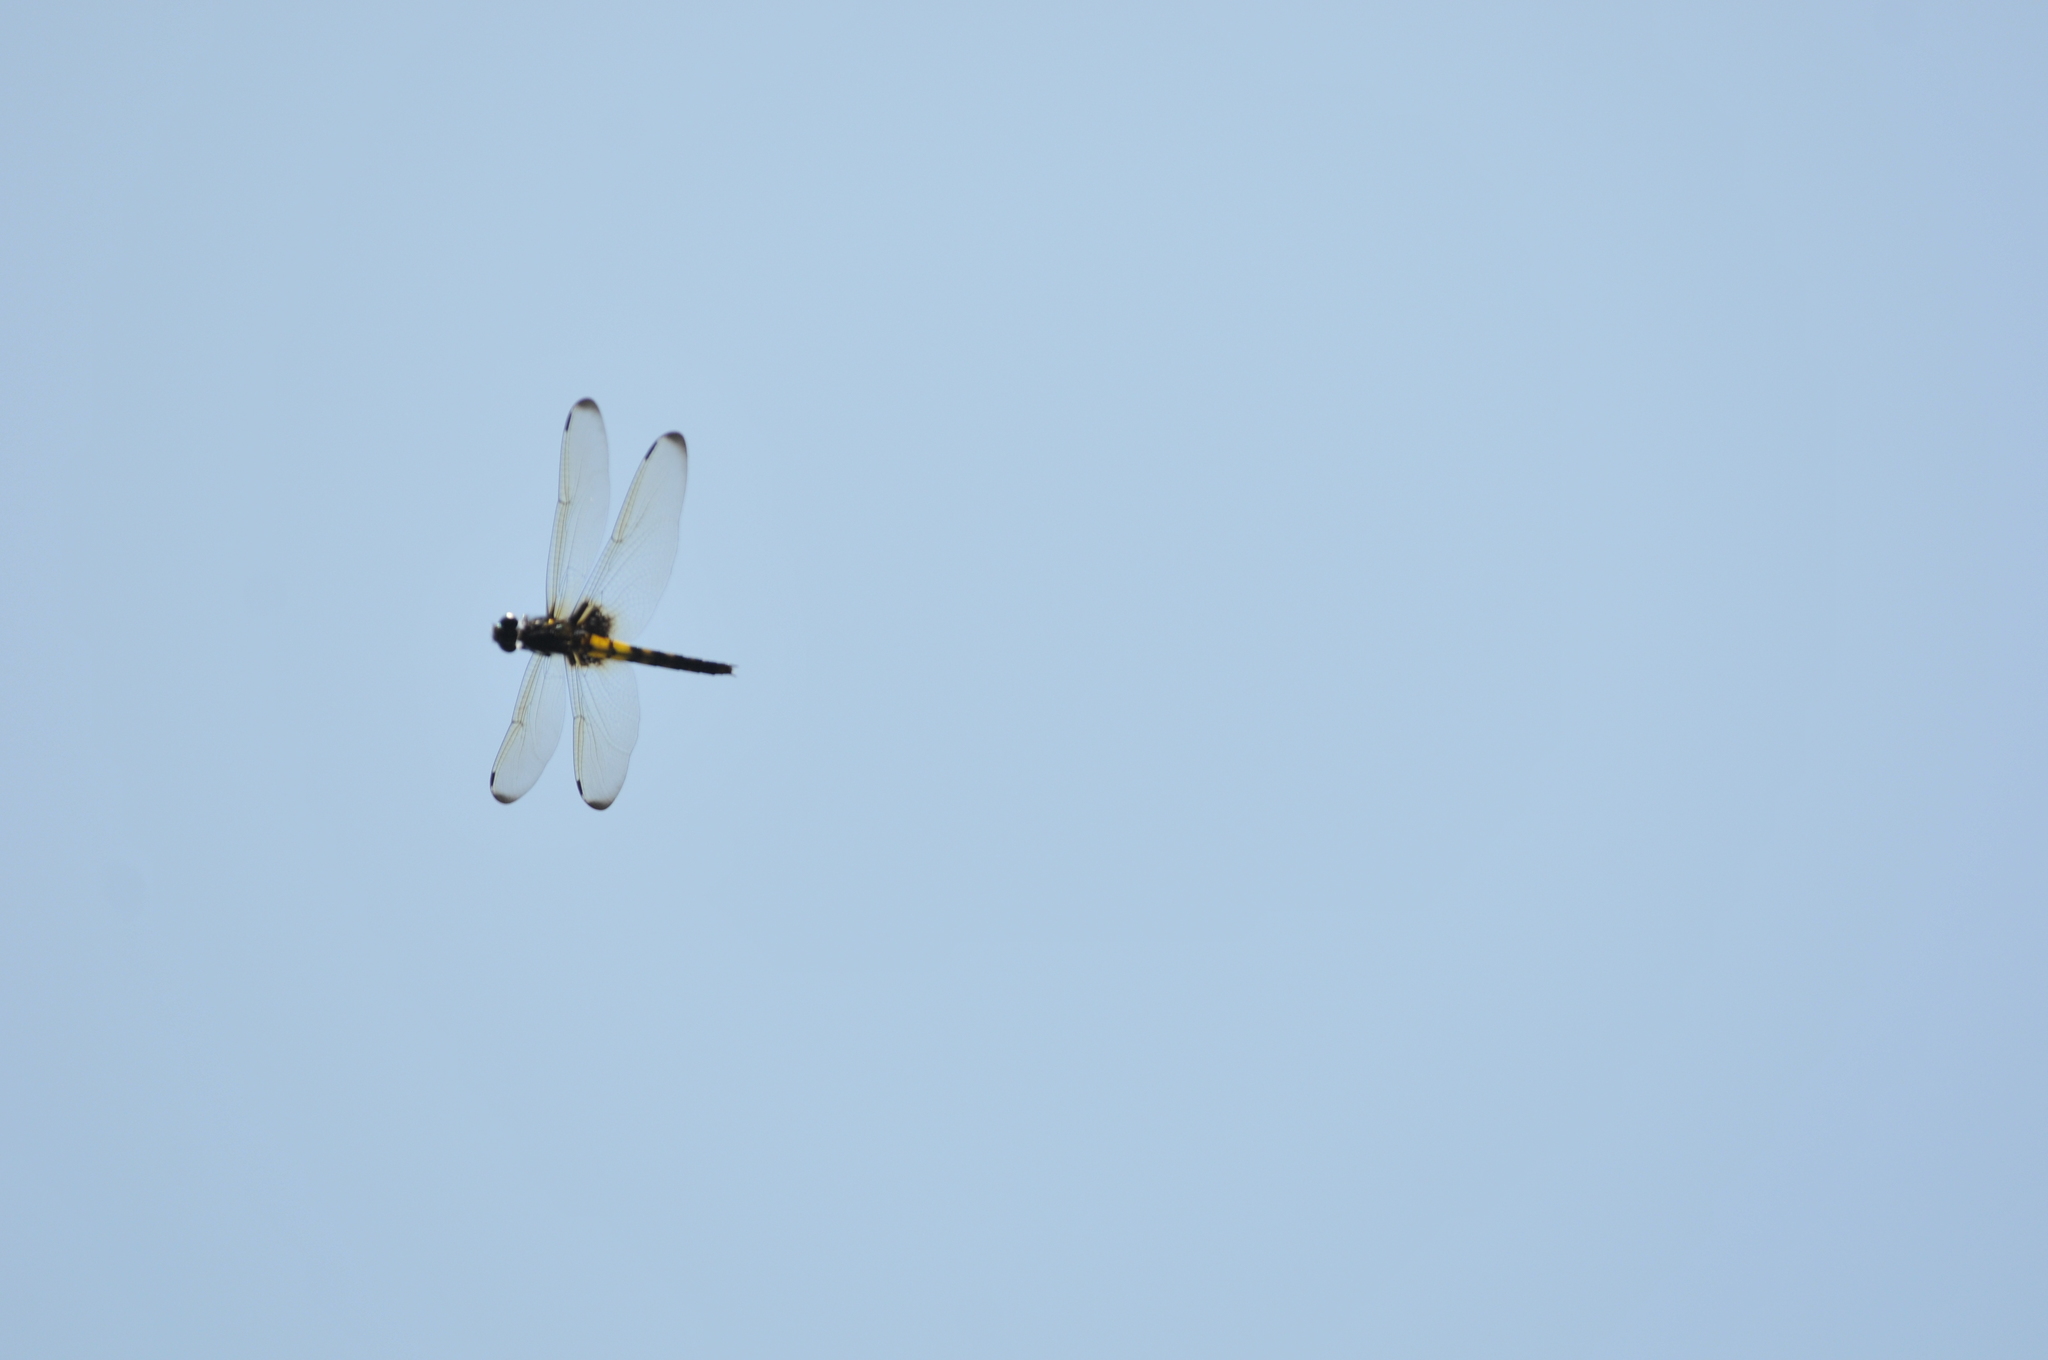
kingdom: Animalia
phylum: Arthropoda
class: Insecta
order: Odonata
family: Libellulidae
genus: Pseudothemis
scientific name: Pseudothemis zonata
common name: Pied skimmer
